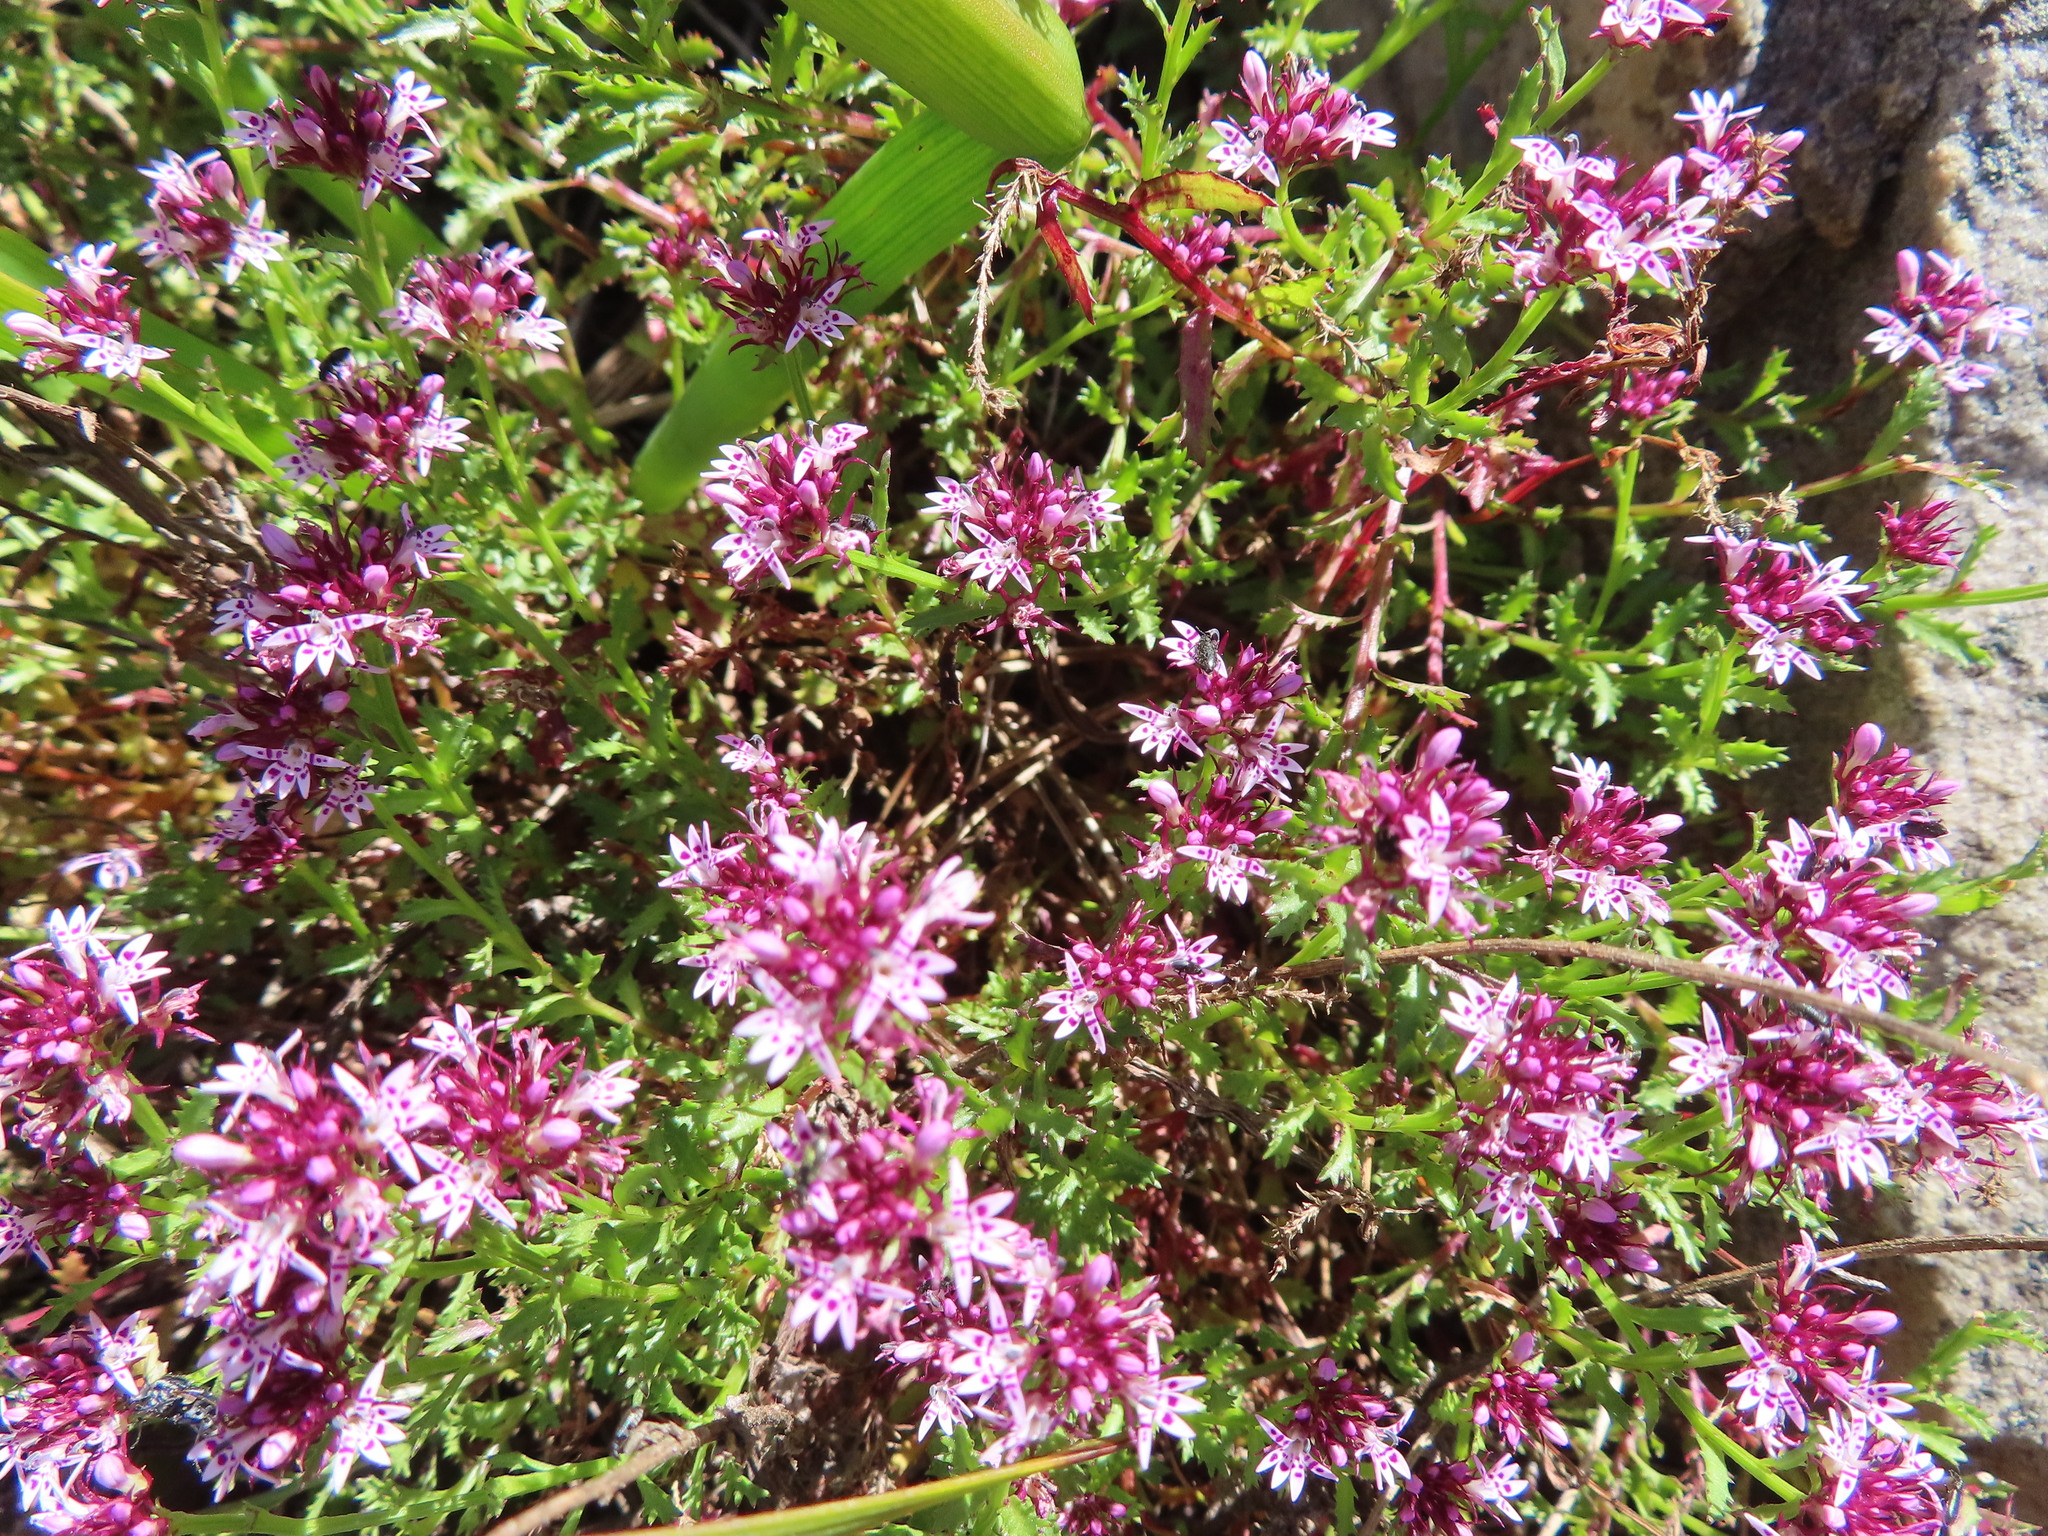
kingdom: Plantae
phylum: Tracheophyta
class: Magnoliopsida
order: Asterales
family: Campanulaceae
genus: Lobelia
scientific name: Lobelia jasionoides
